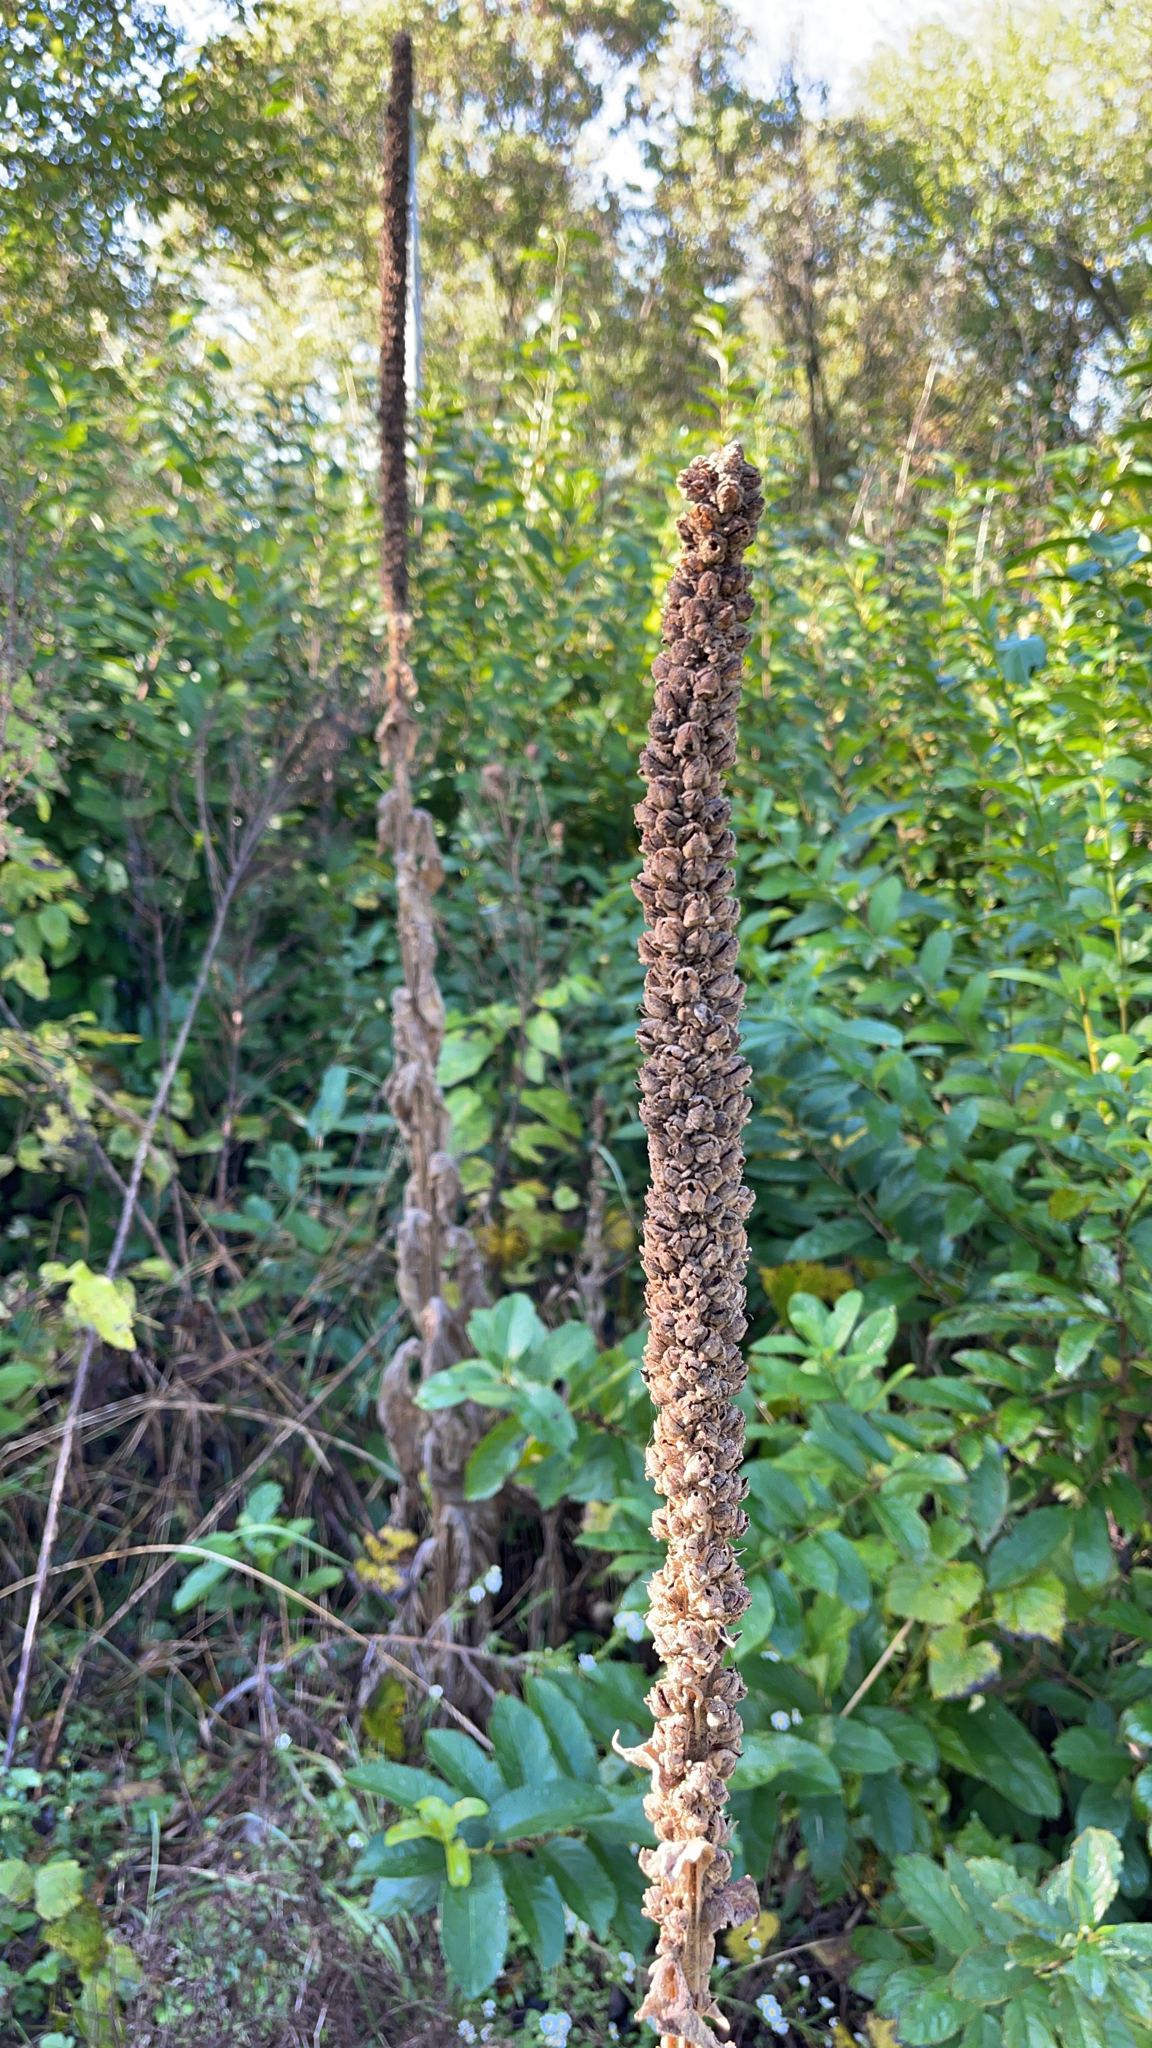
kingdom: Plantae
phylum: Tracheophyta
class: Magnoliopsida
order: Lamiales
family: Scrophulariaceae
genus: Verbascum
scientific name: Verbascum thapsus
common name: Common mullein
